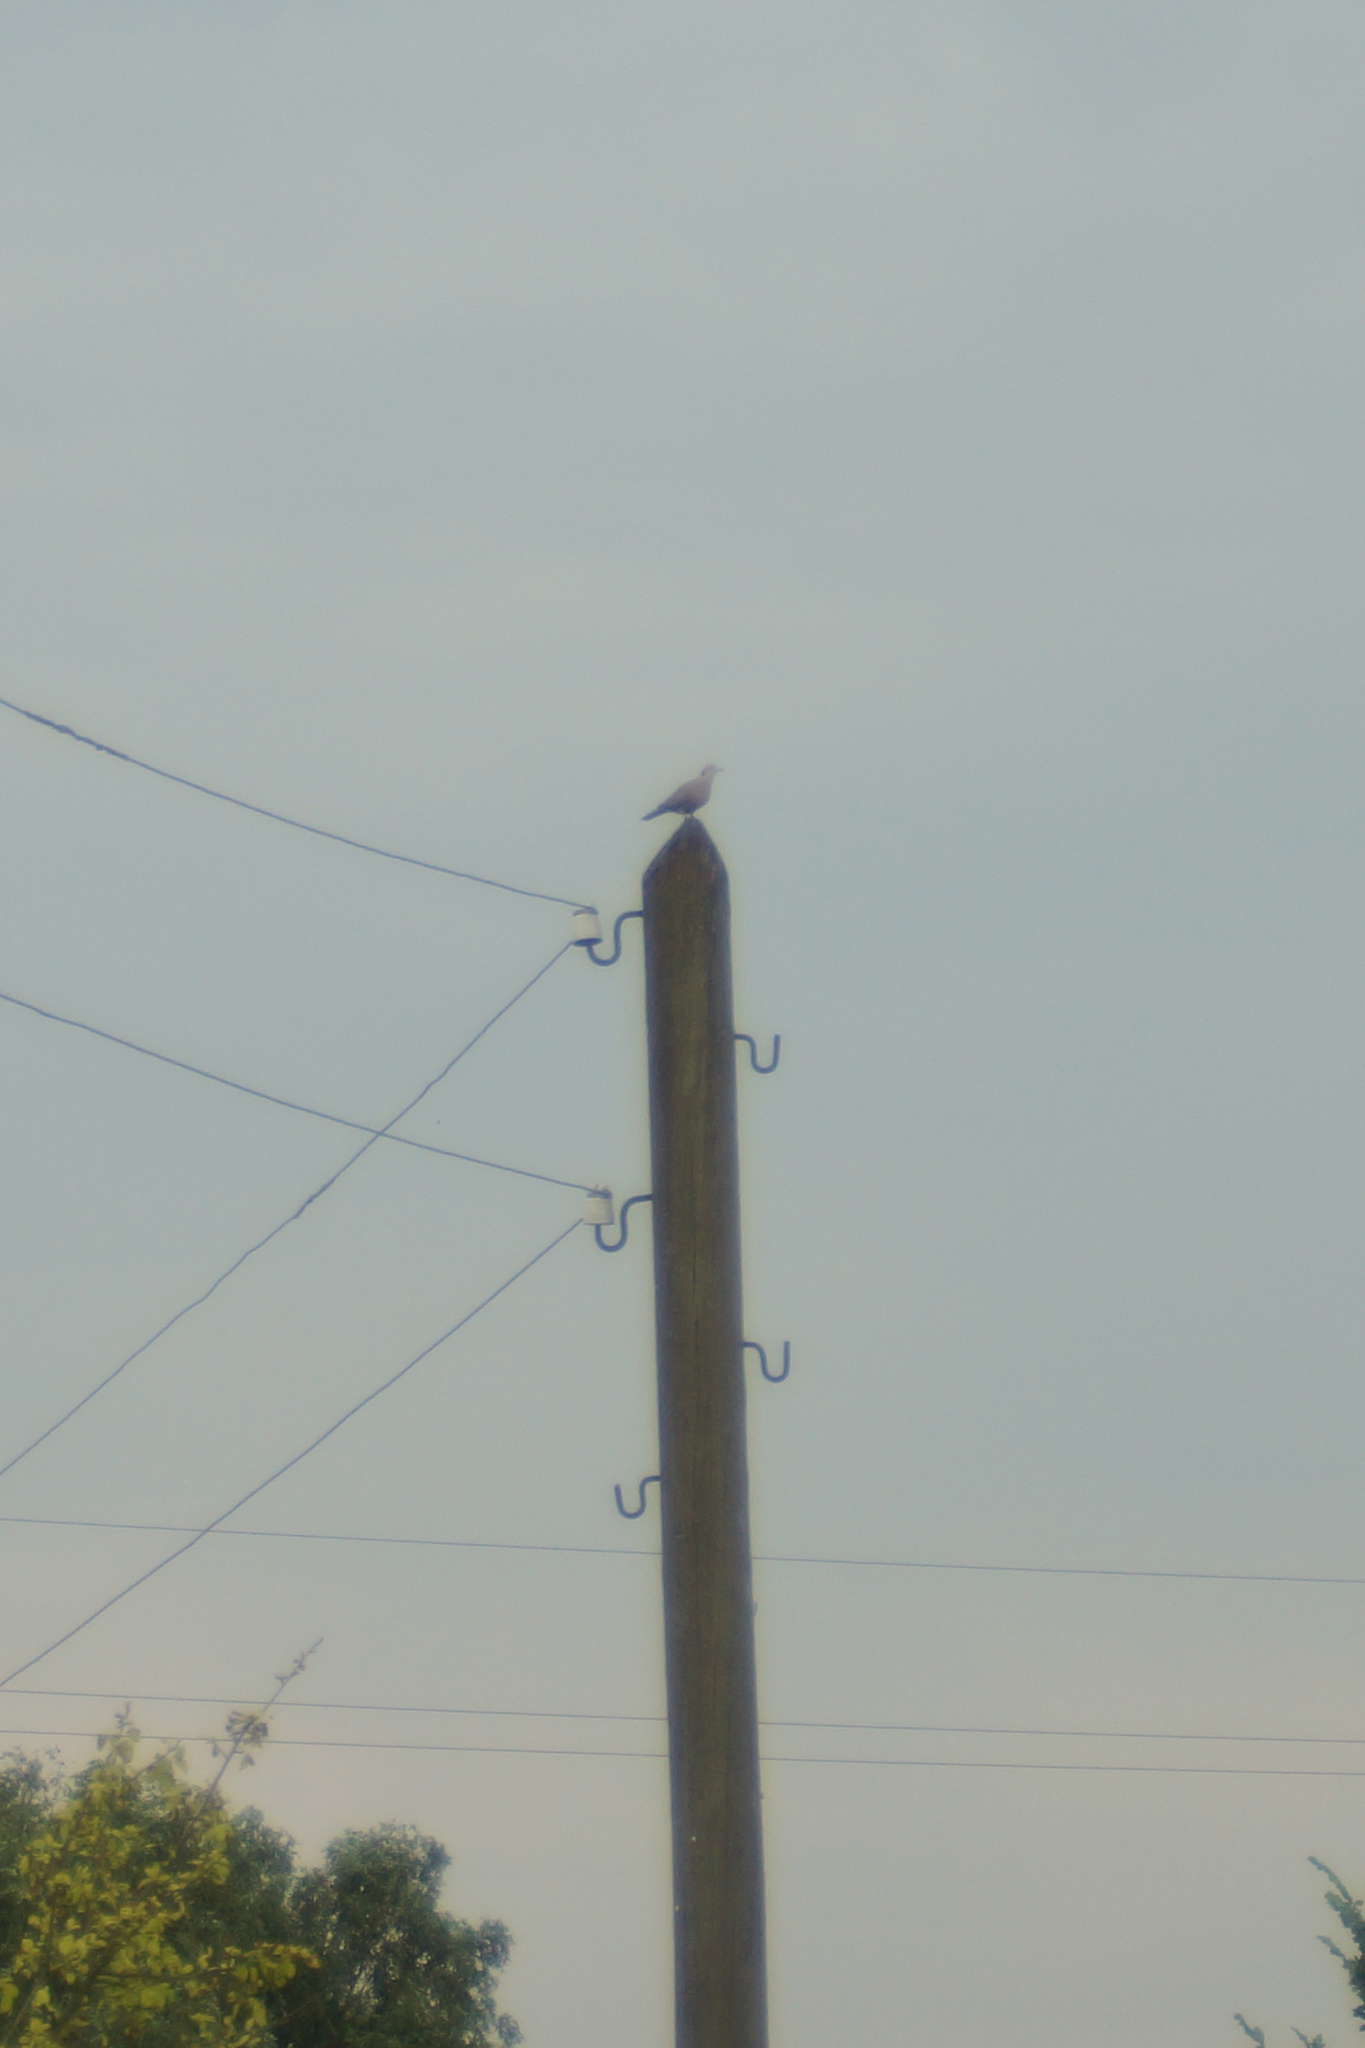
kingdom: Animalia
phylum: Chordata
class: Aves
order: Columbiformes
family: Columbidae
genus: Streptopelia
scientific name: Streptopelia decaocto
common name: Eurasian collared dove
